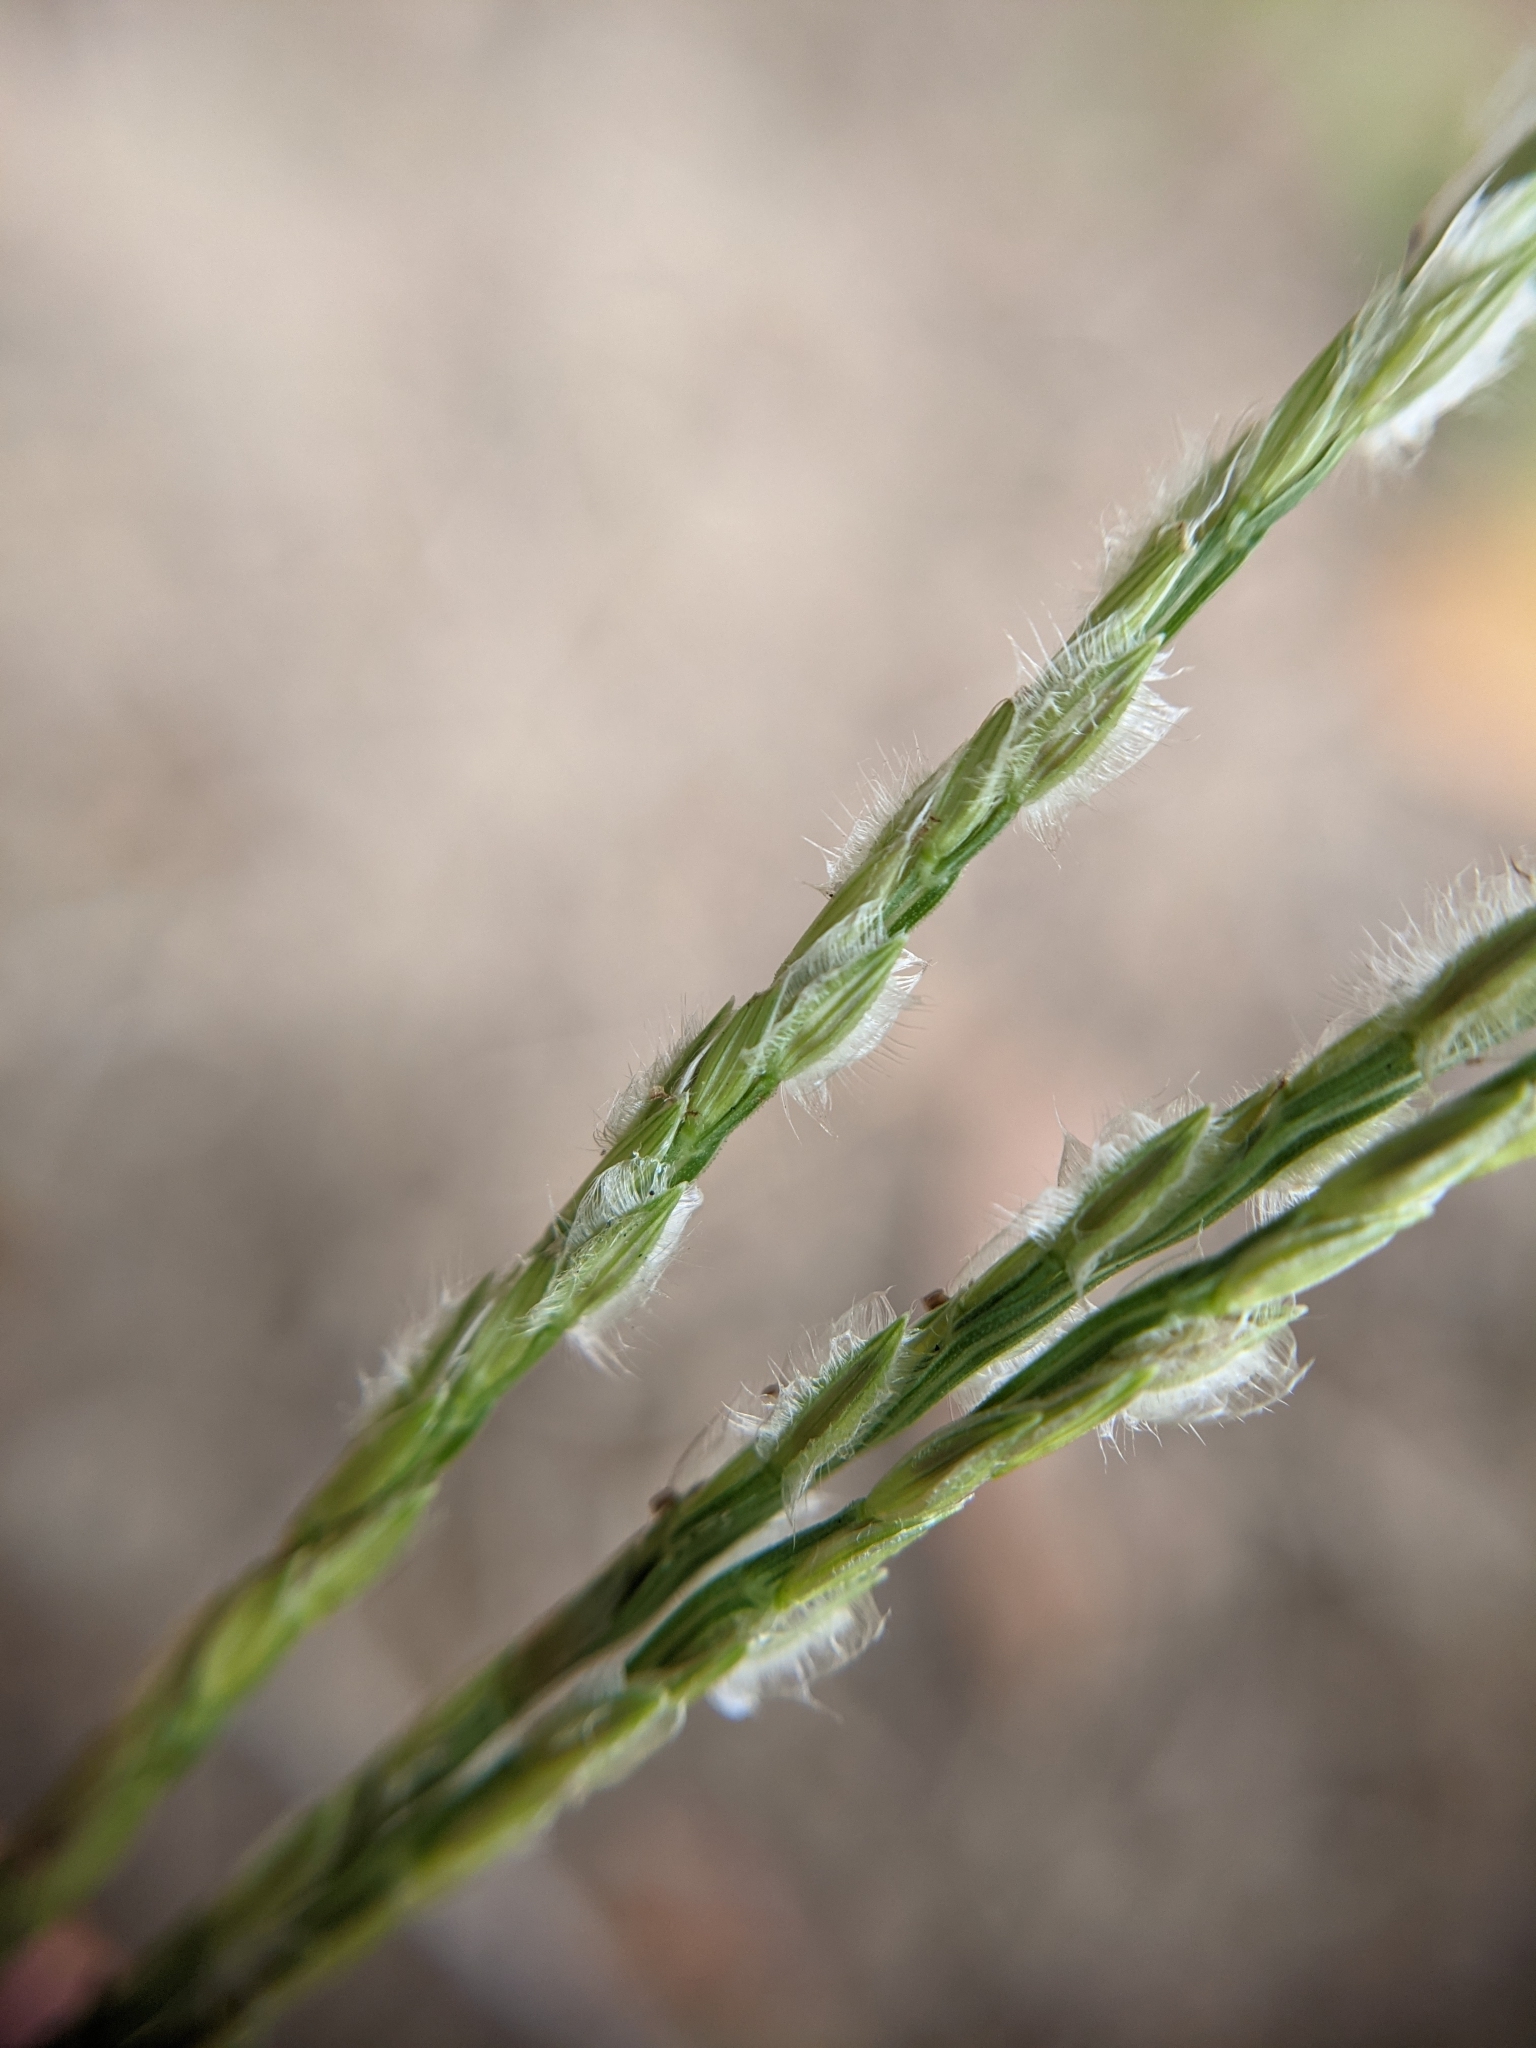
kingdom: Plantae
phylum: Tracheophyta
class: Liliopsida
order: Poales
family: Poaceae
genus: Digitaria
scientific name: Digitaria bicornis
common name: Asian crabgrass
